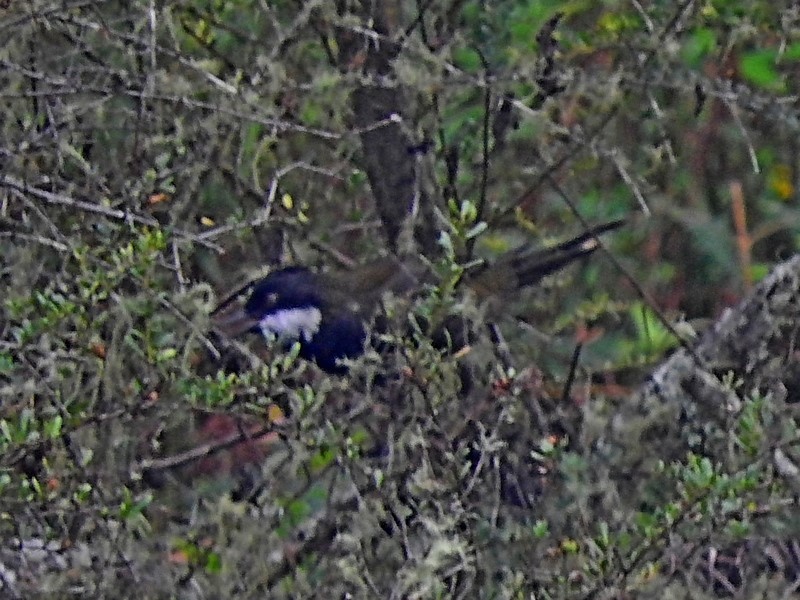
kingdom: Animalia
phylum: Chordata
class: Aves
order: Passeriformes
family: Psophodidae
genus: Psophodes
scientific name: Psophodes olivaceus
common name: Eastern whipbird
